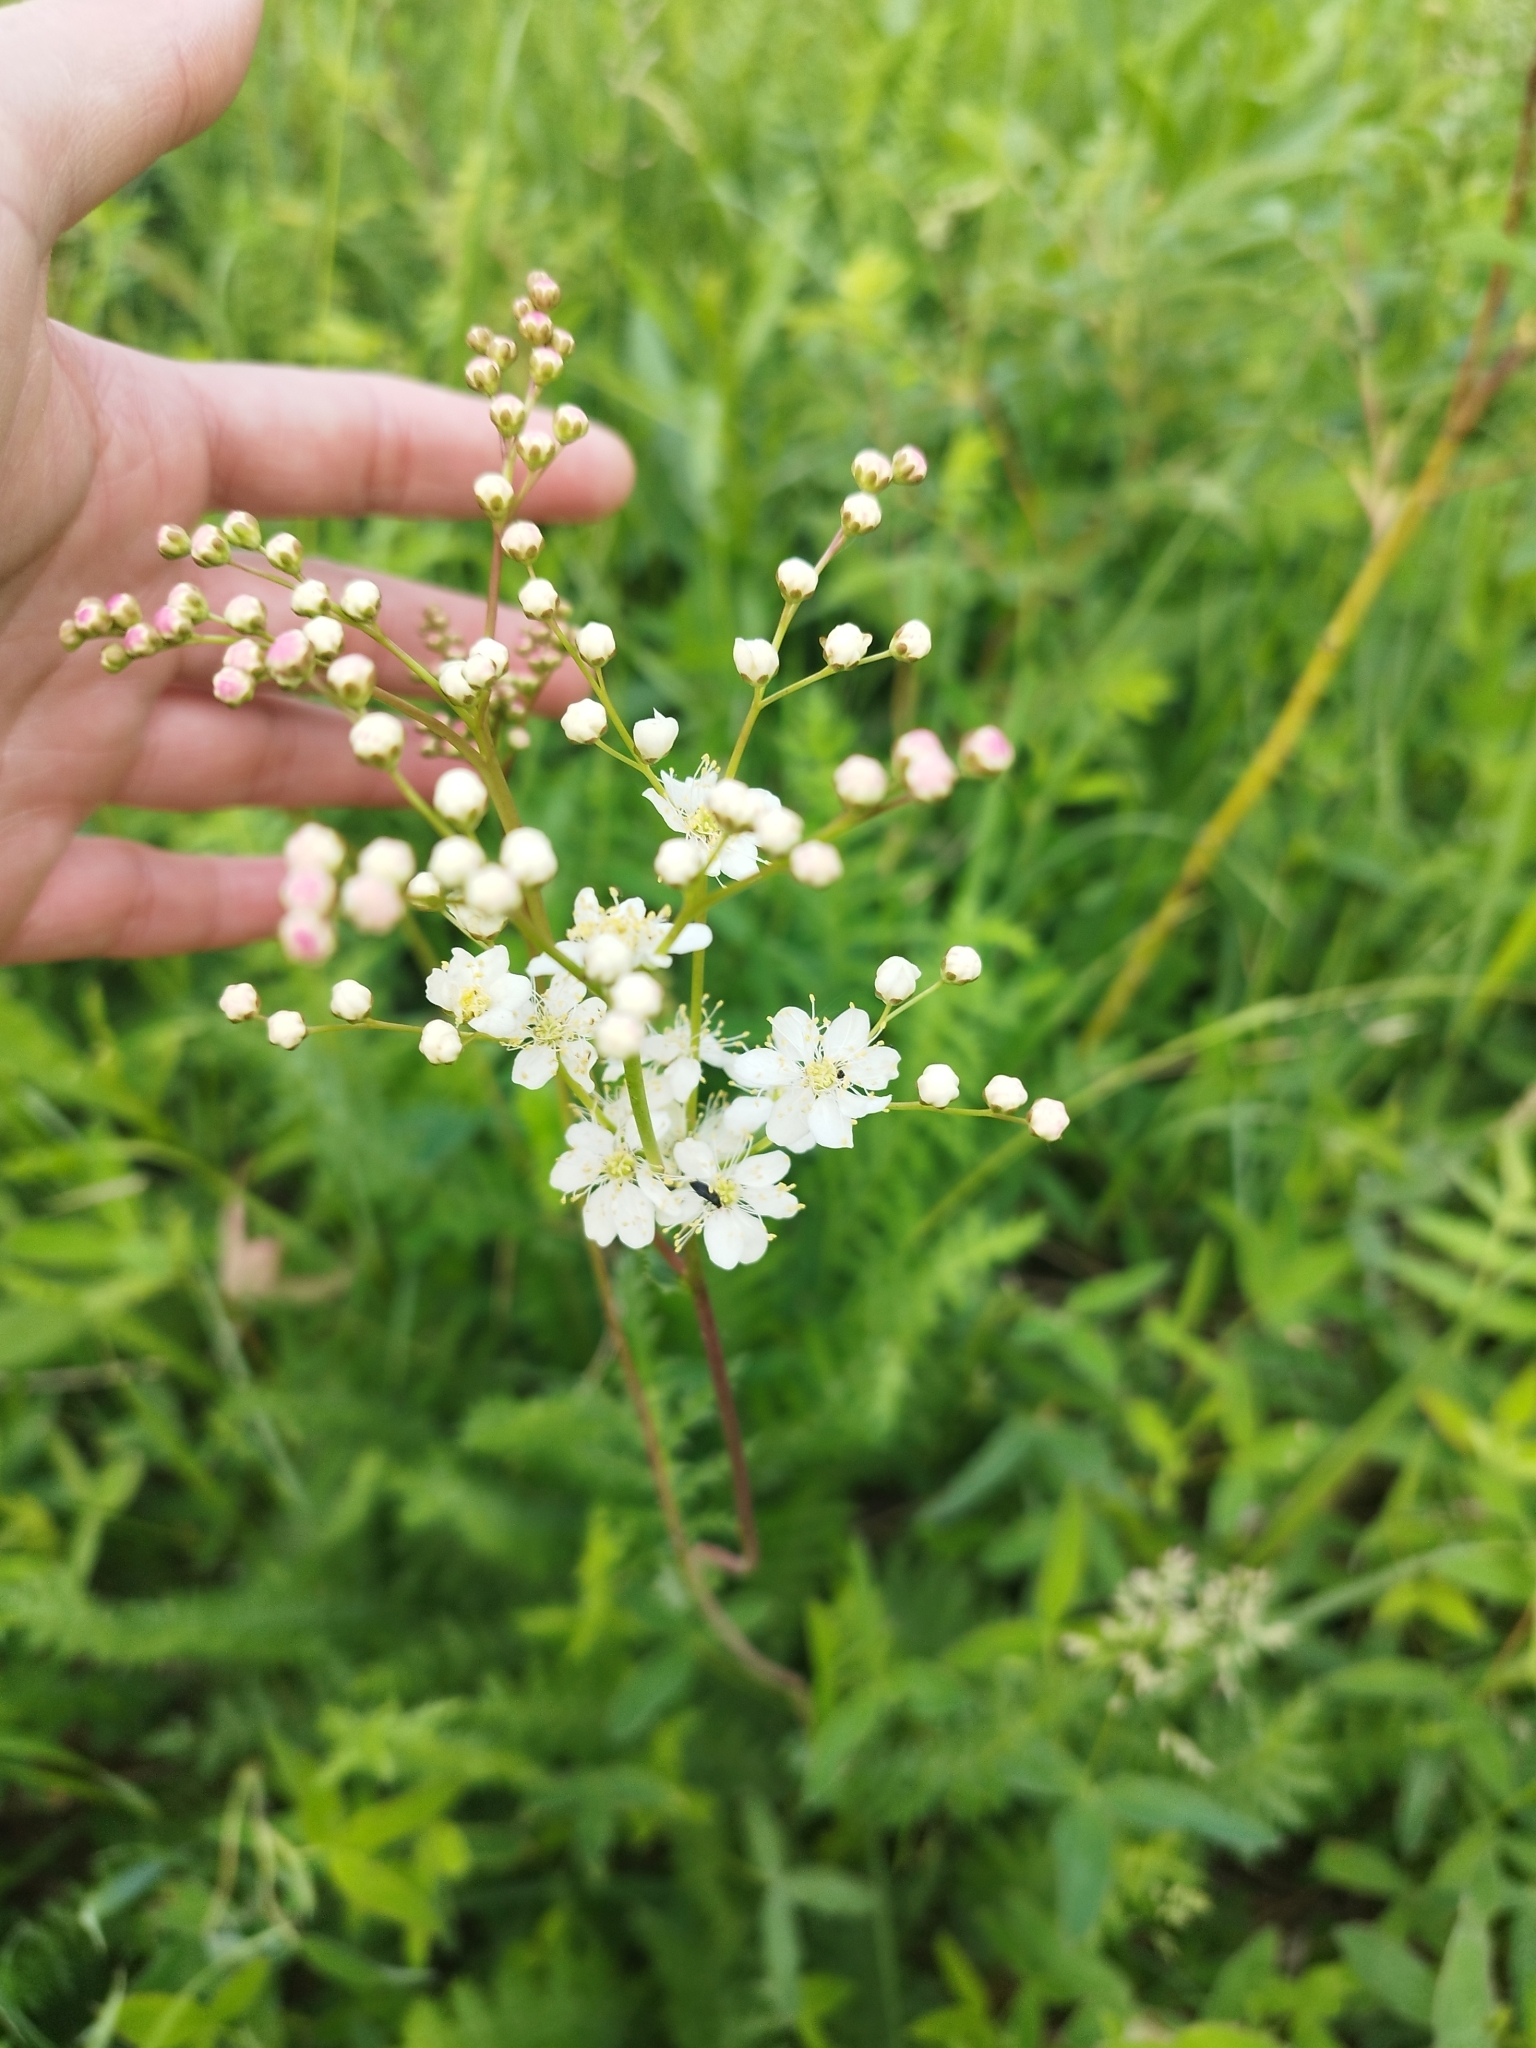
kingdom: Plantae
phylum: Tracheophyta
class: Magnoliopsida
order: Rosales
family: Rosaceae
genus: Filipendula
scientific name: Filipendula vulgaris
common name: Dropwort
